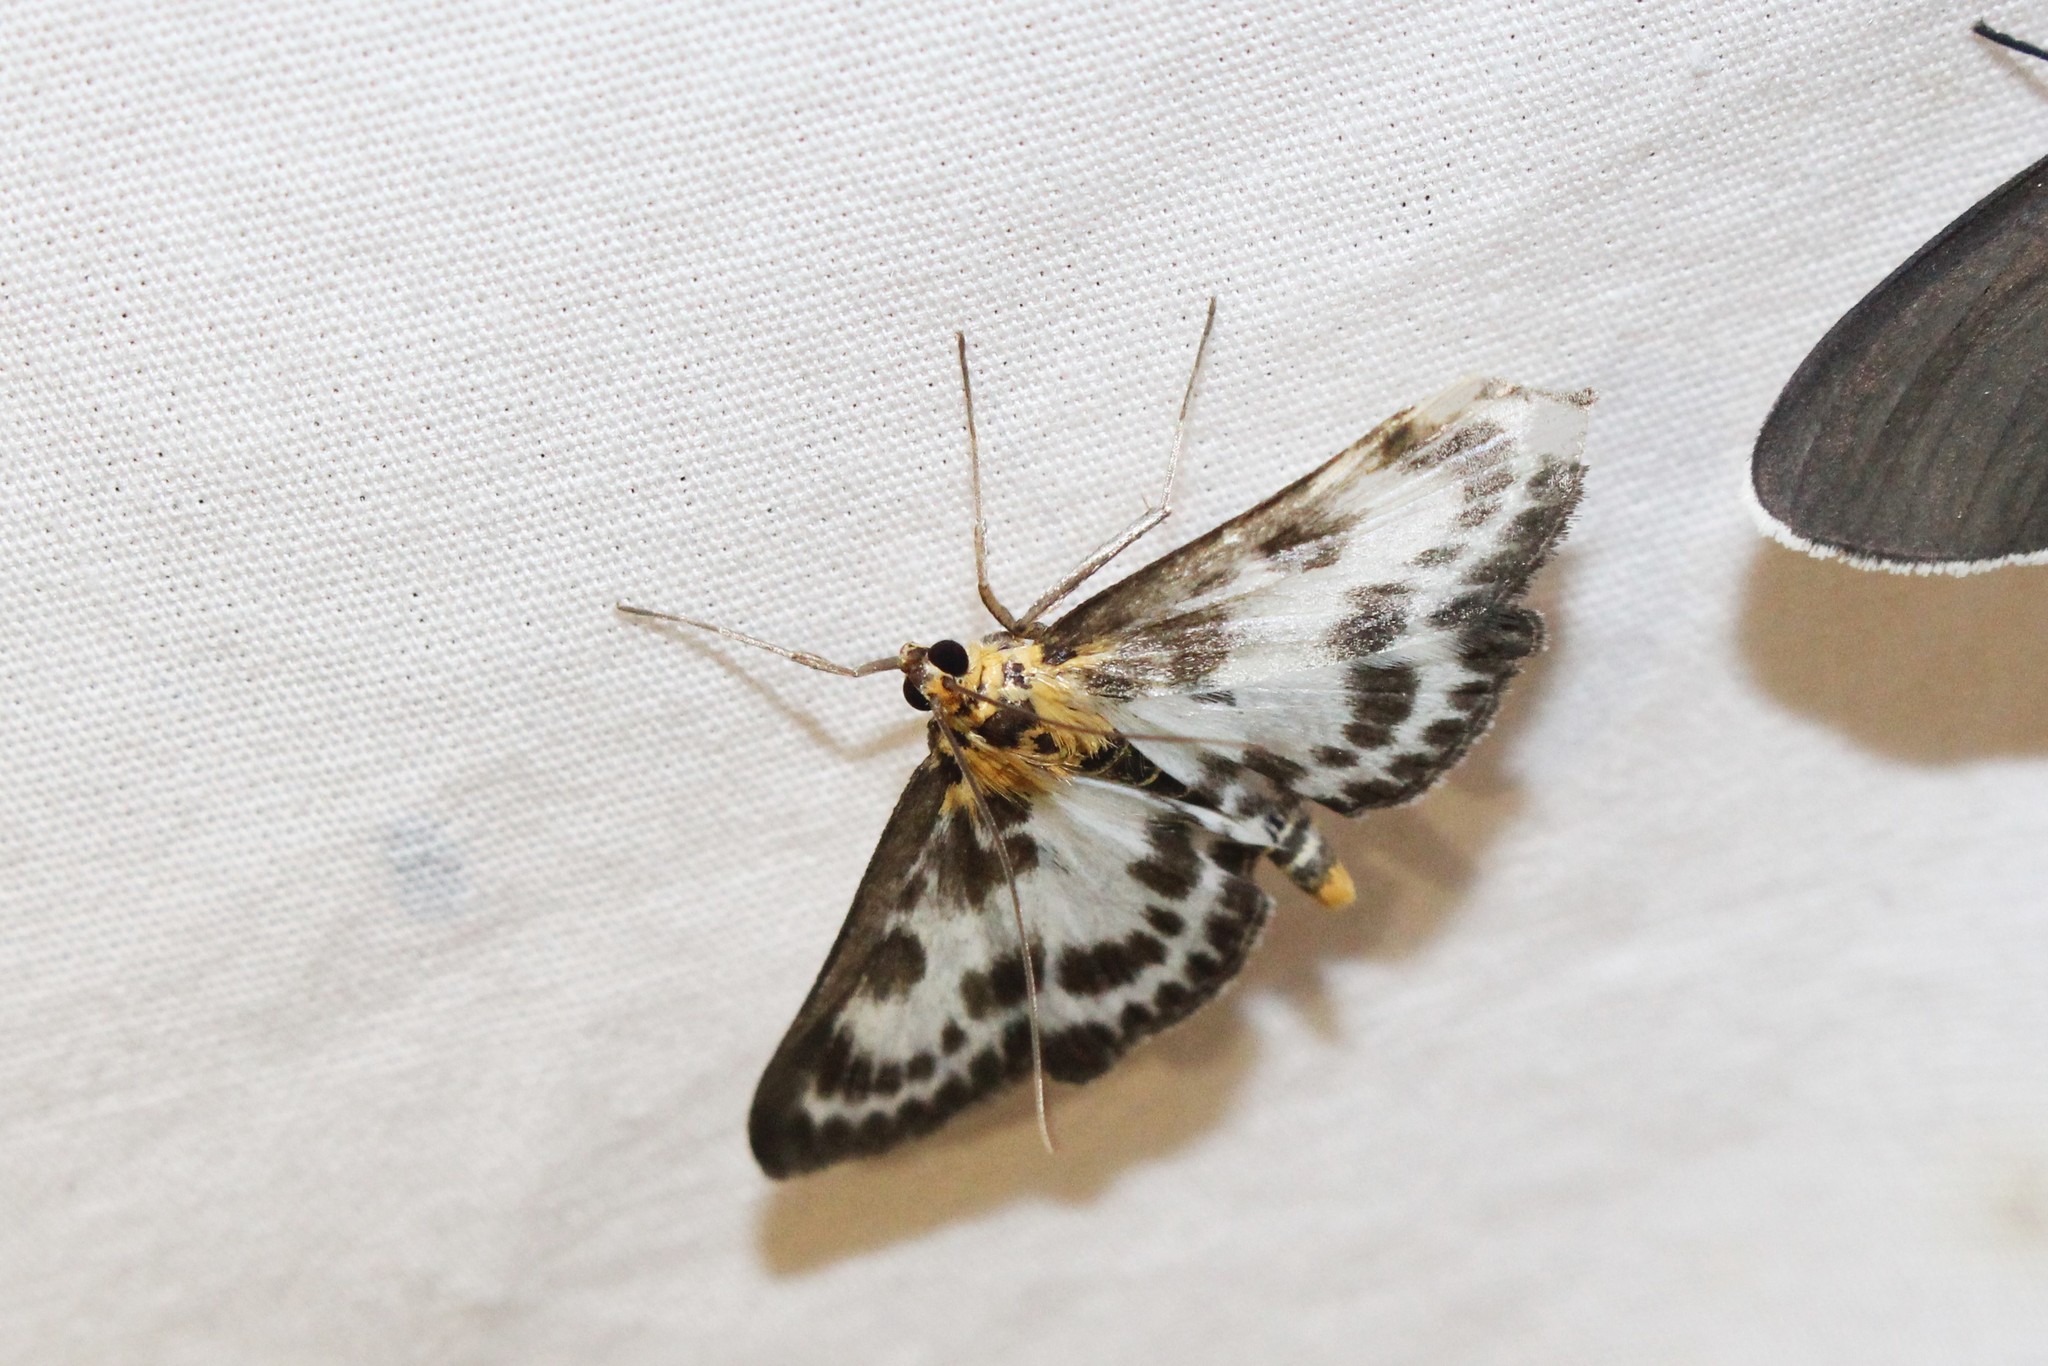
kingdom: Animalia
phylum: Arthropoda
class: Insecta
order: Lepidoptera
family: Crambidae
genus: Anania
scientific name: Anania hortulata
